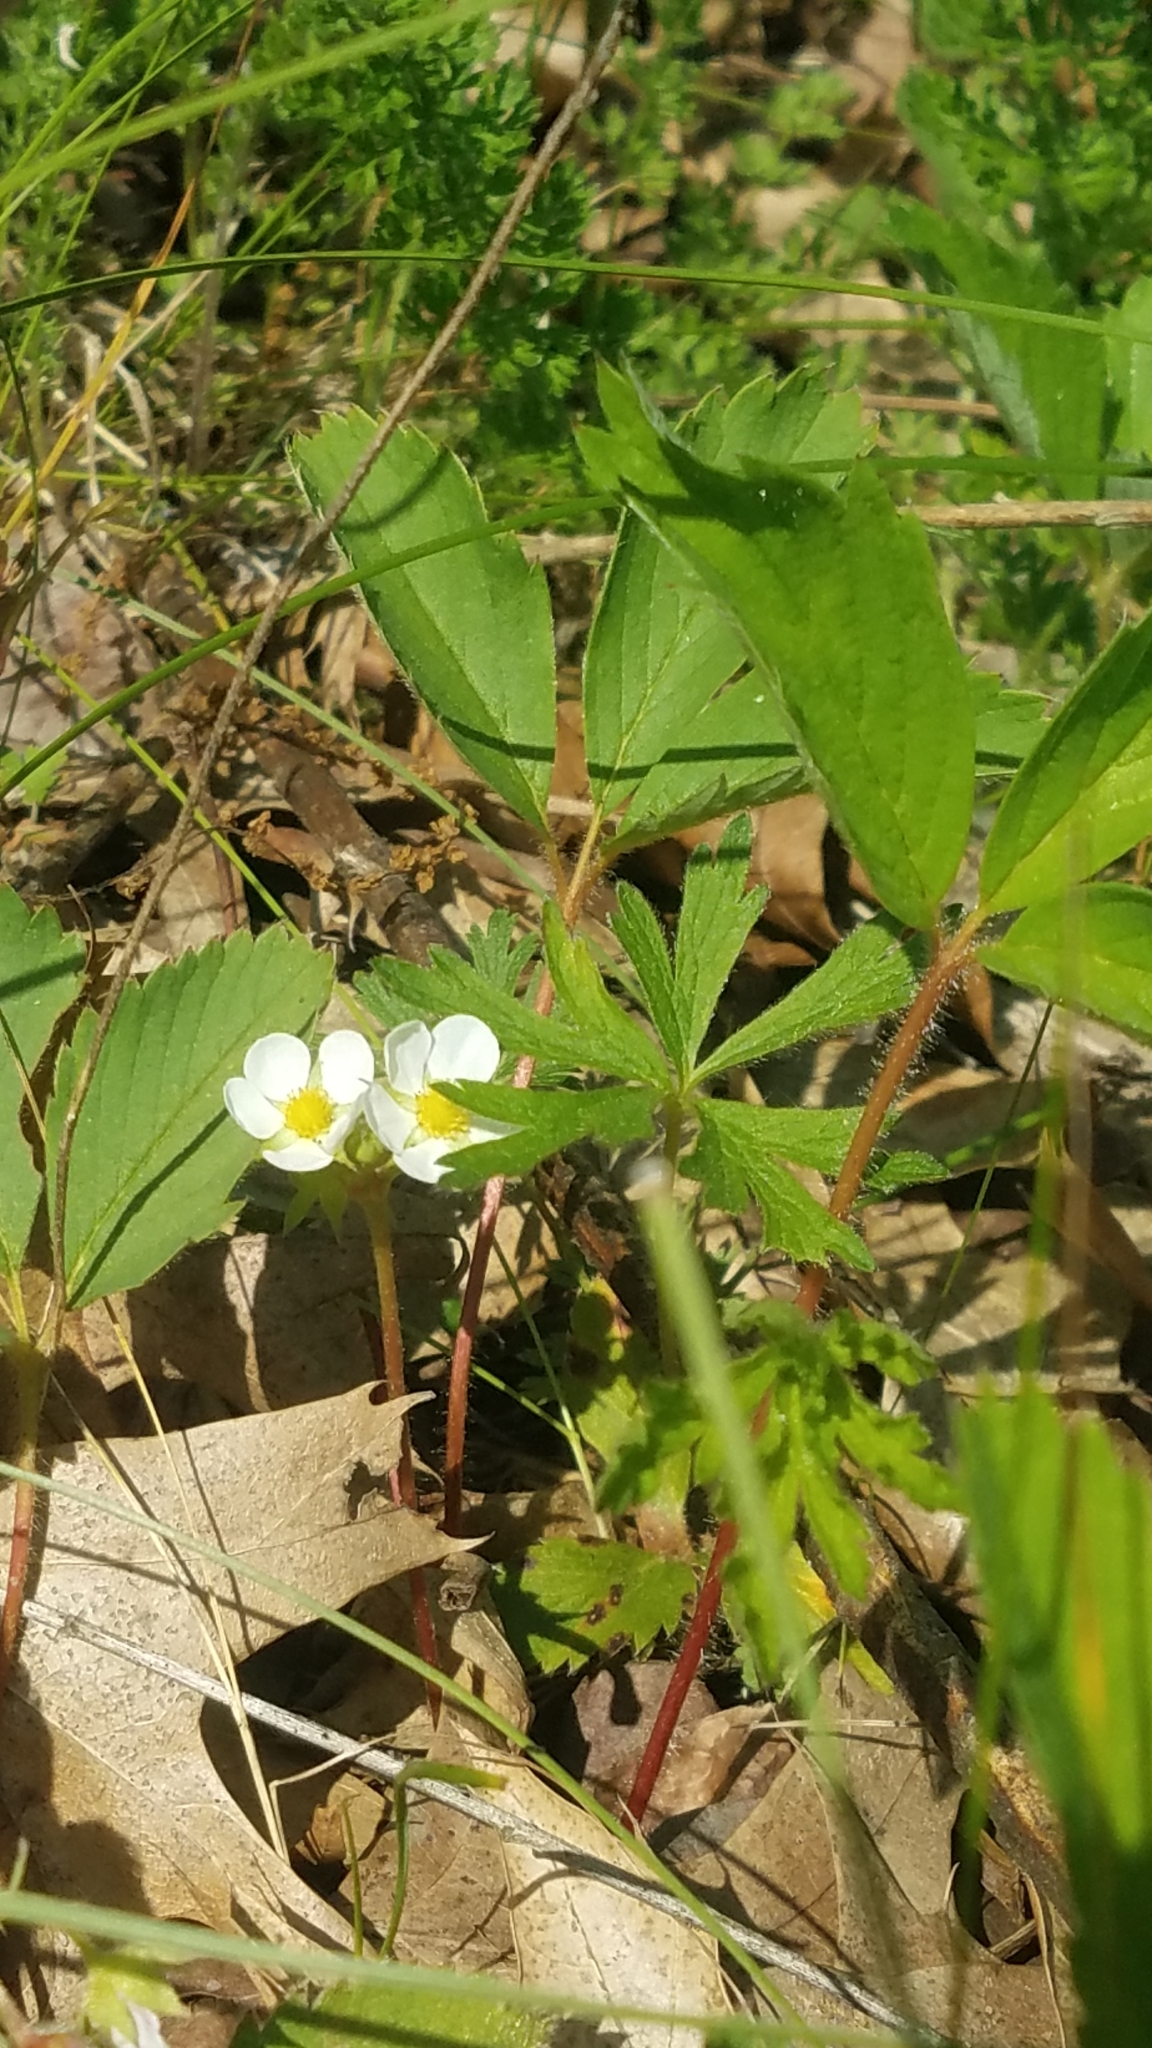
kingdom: Plantae
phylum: Tracheophyta
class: Magnoliopsida
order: Rosales
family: Rosaceae
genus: Fragaria
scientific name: Fragaria virginiana
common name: Thickleaved wild strawberry
